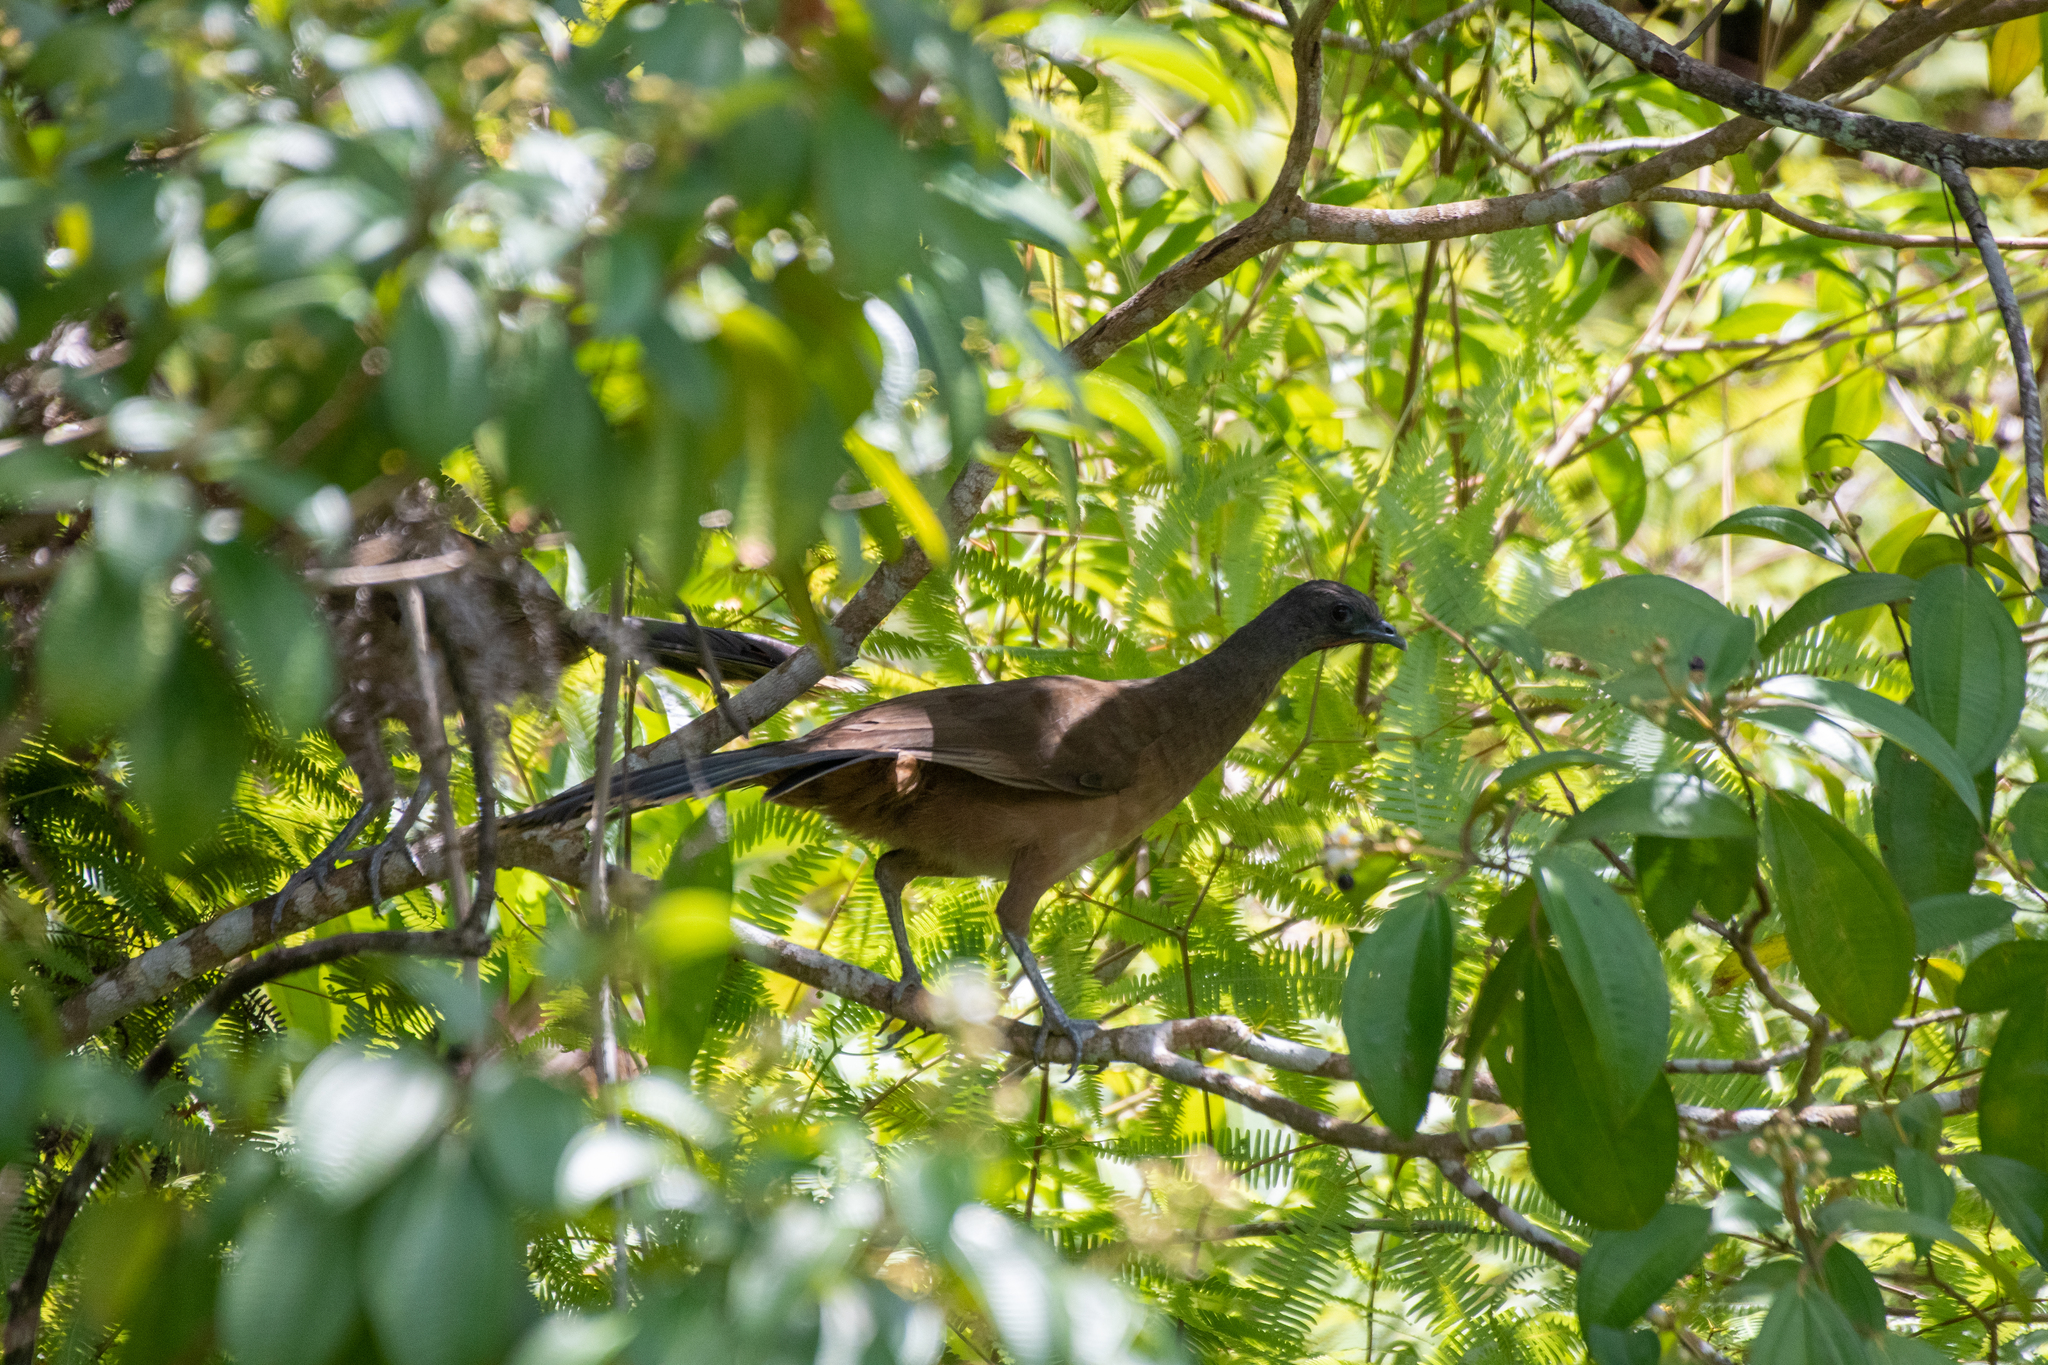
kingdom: Animalia
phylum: Chordata
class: Aves
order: Galliformes
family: Cracidae
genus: Ortalis
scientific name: Ortalis vetula
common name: Plain chachalaca
